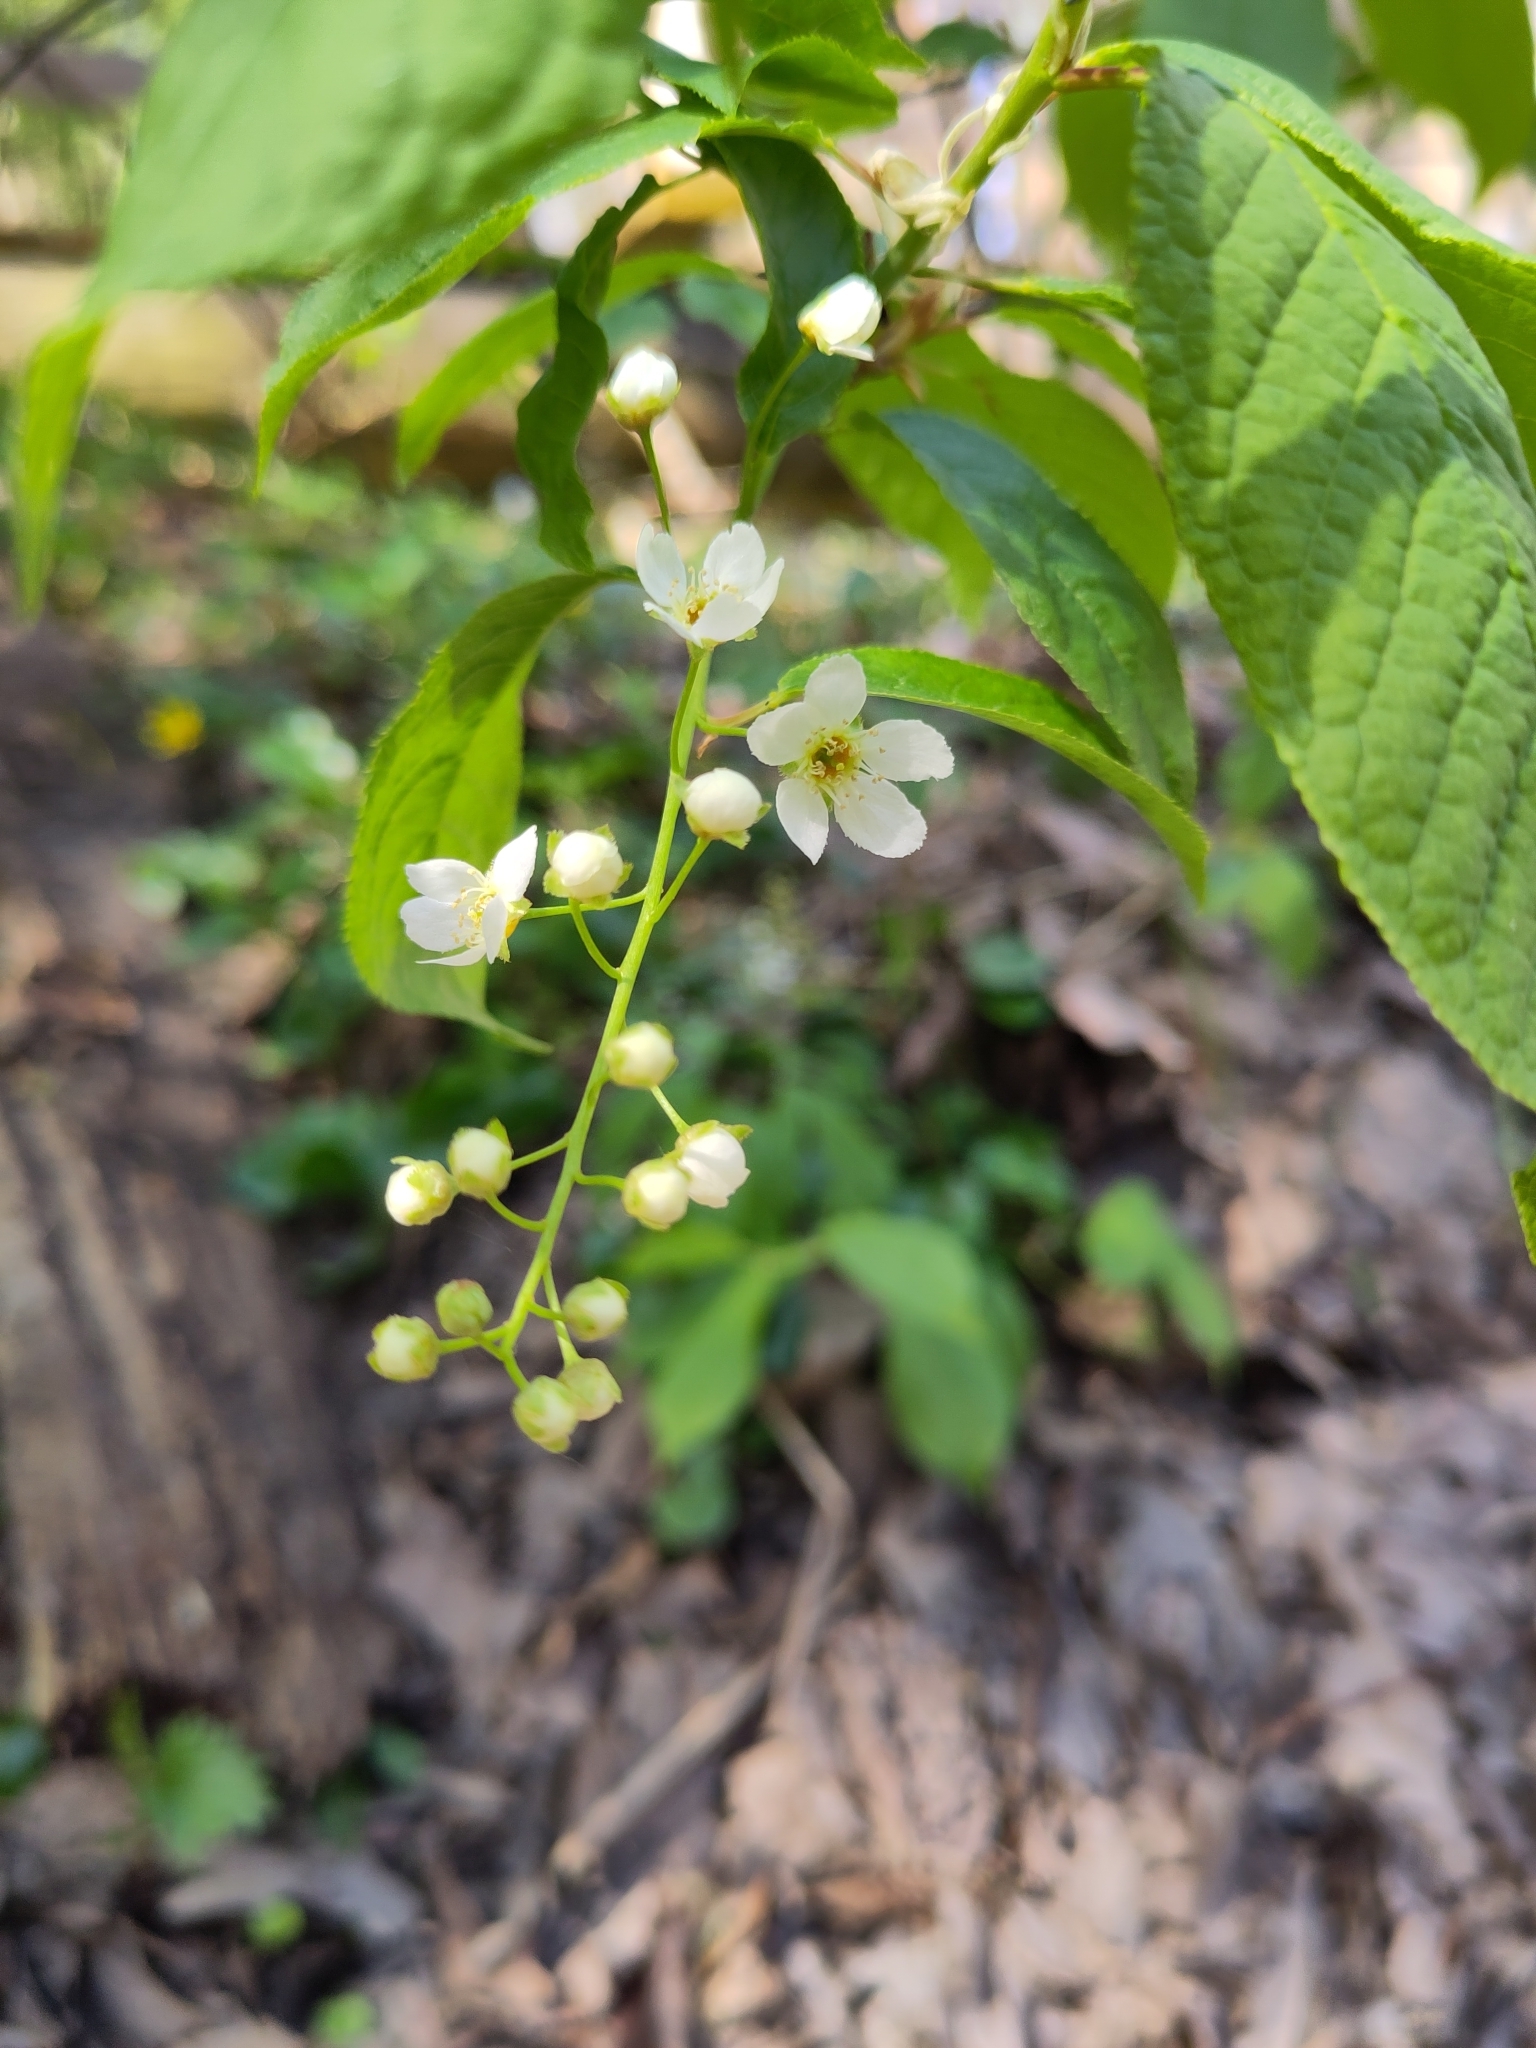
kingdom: Plantae
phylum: Tracheophyta
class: Magnoliopsida
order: Rosales
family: Rosaceae
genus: Prunus
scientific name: Prunus padus
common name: Bird cherry
